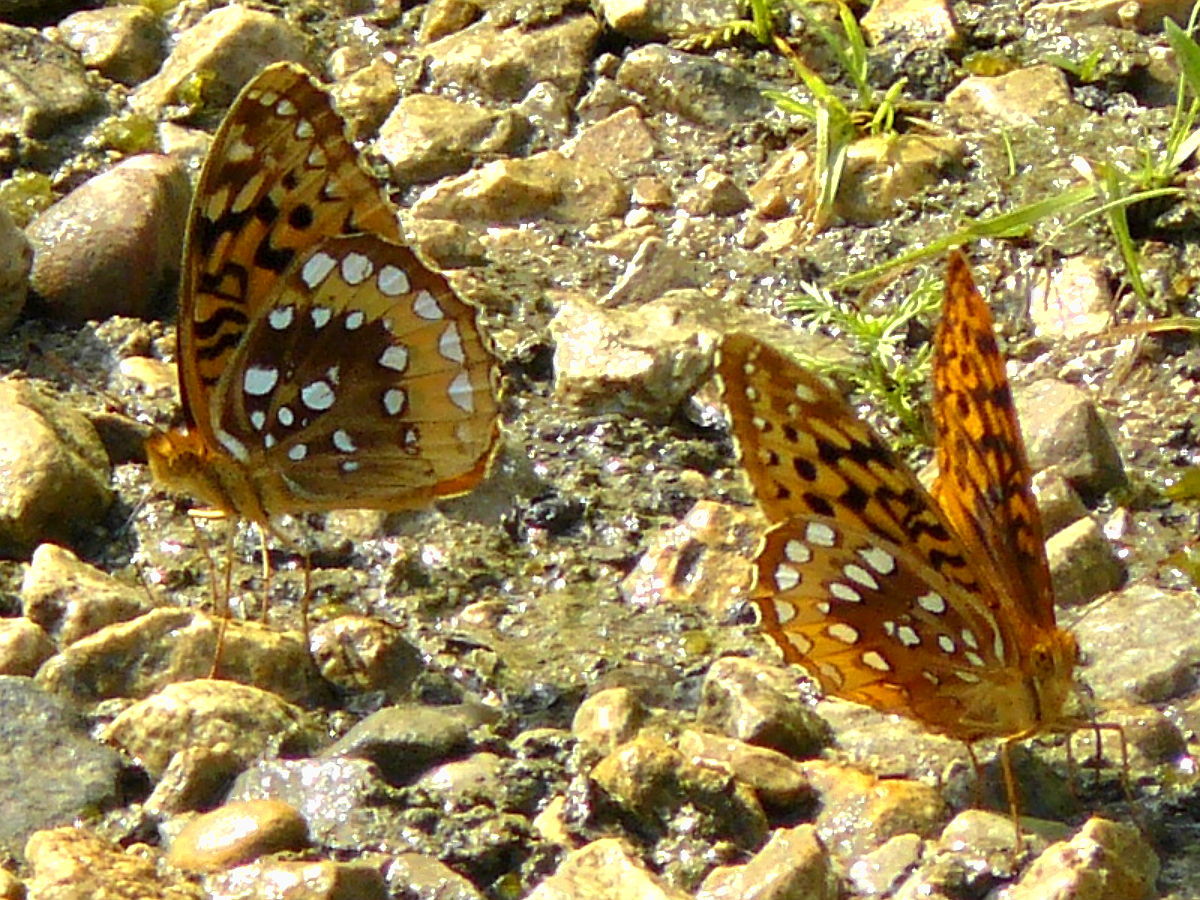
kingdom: Animalia
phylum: Arthropoda
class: Insecta
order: Lepidoptera
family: Nymphalidae
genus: Speyeria
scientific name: Speyeria cybele
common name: Great spangled fritillary
